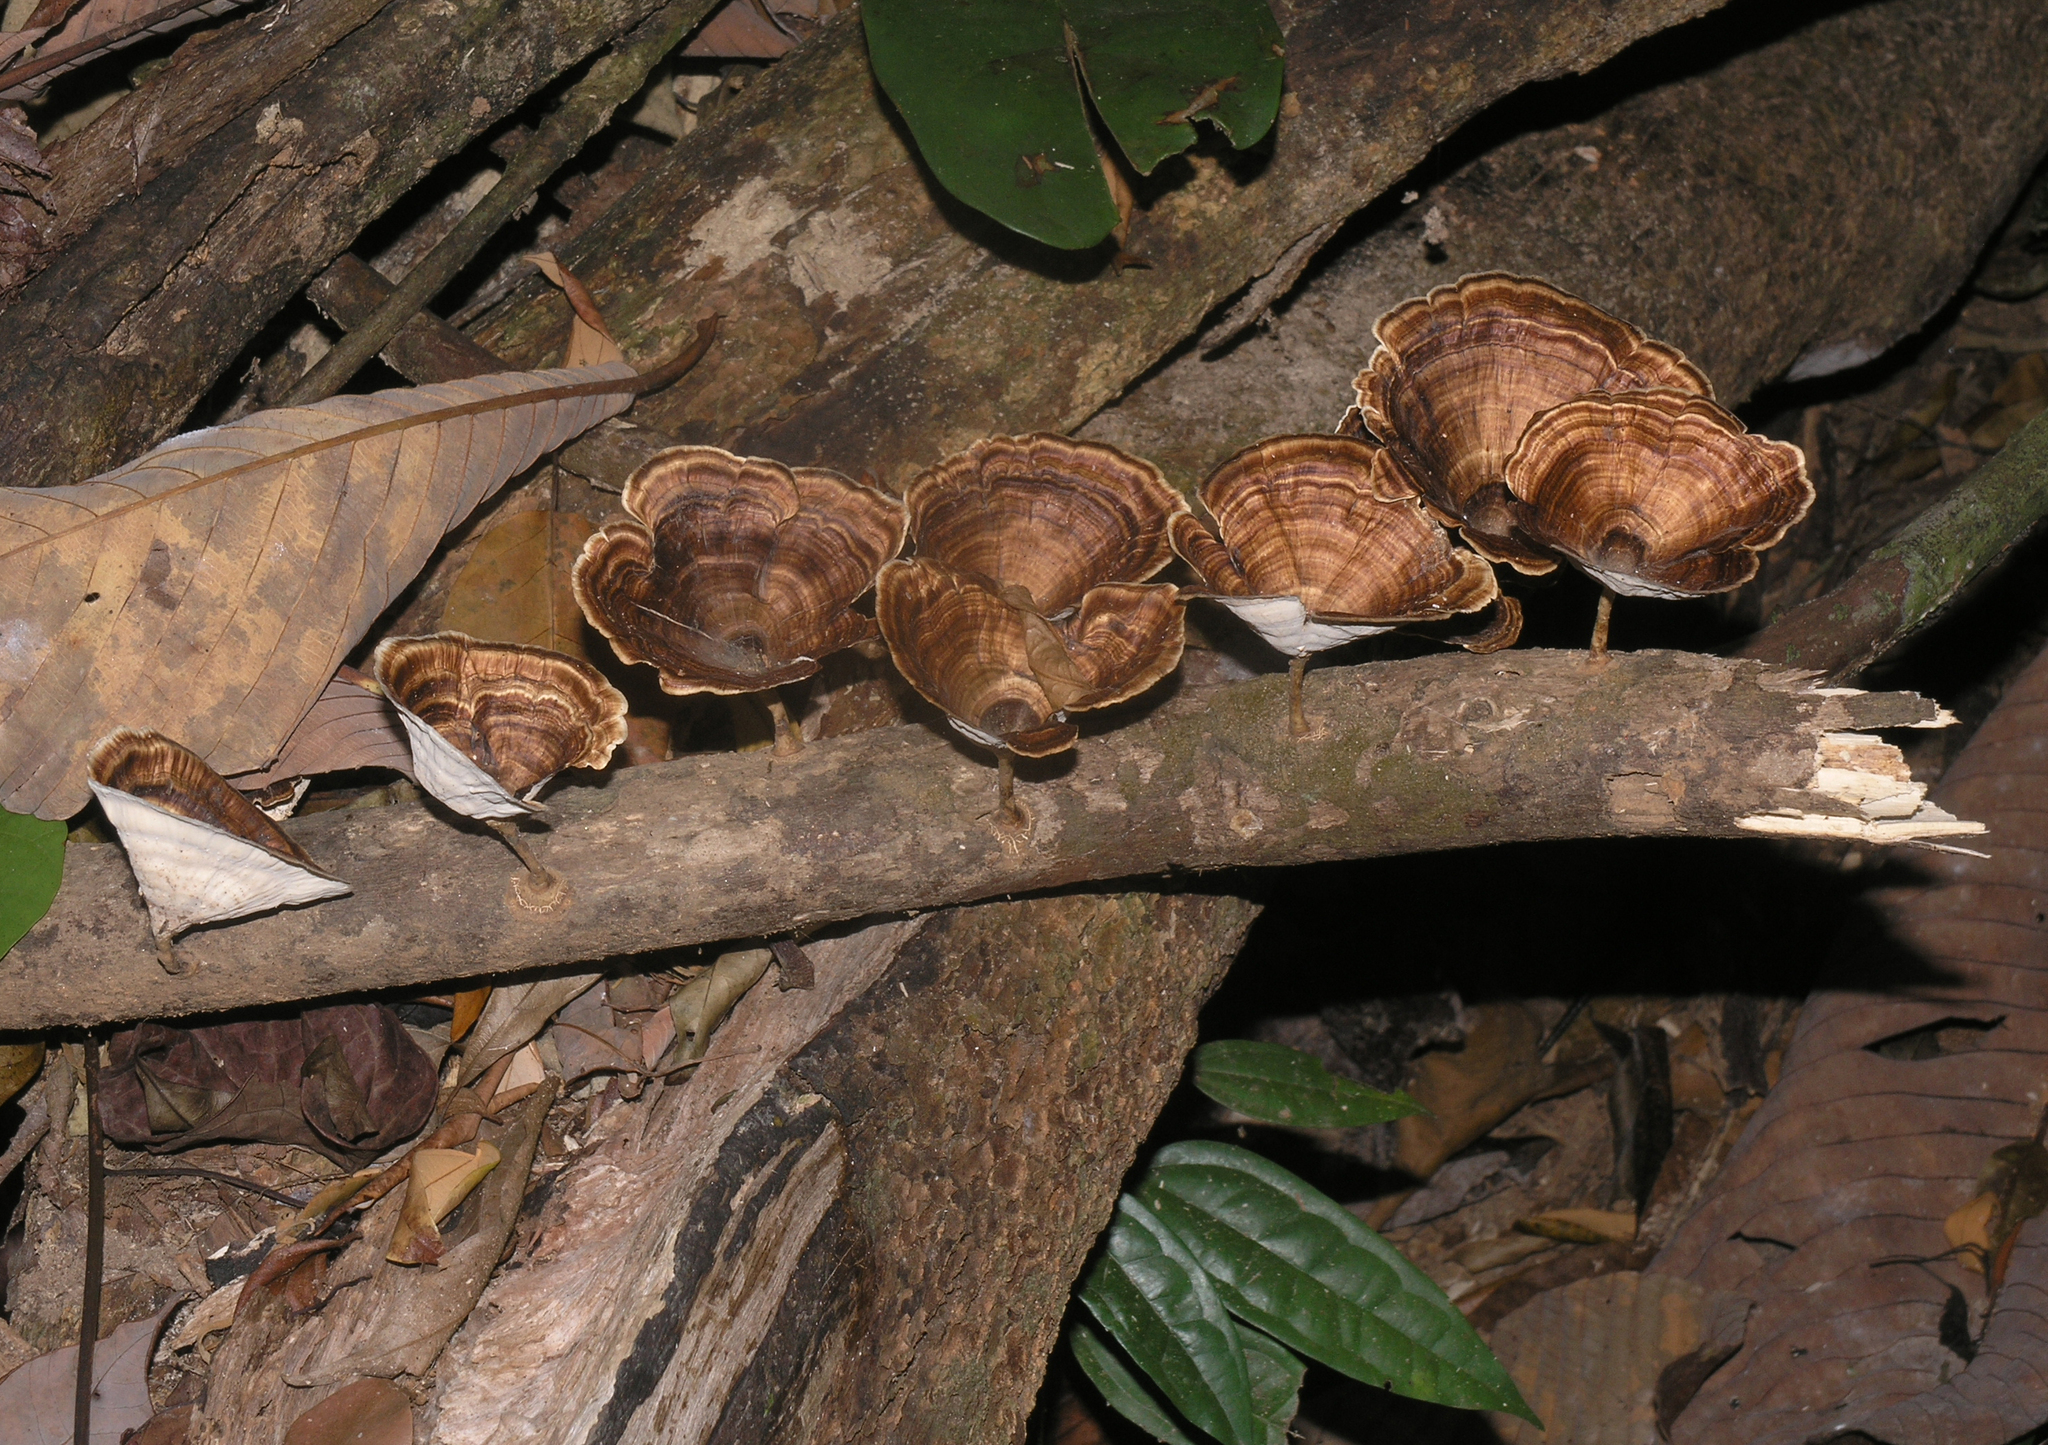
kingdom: Fungi
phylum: Basidiomycota
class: Agaricomycetes
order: Polyporales
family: Polyporaceae
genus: Microporus
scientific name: Microporus xanthopus
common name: Yellow-stemmed micropore
